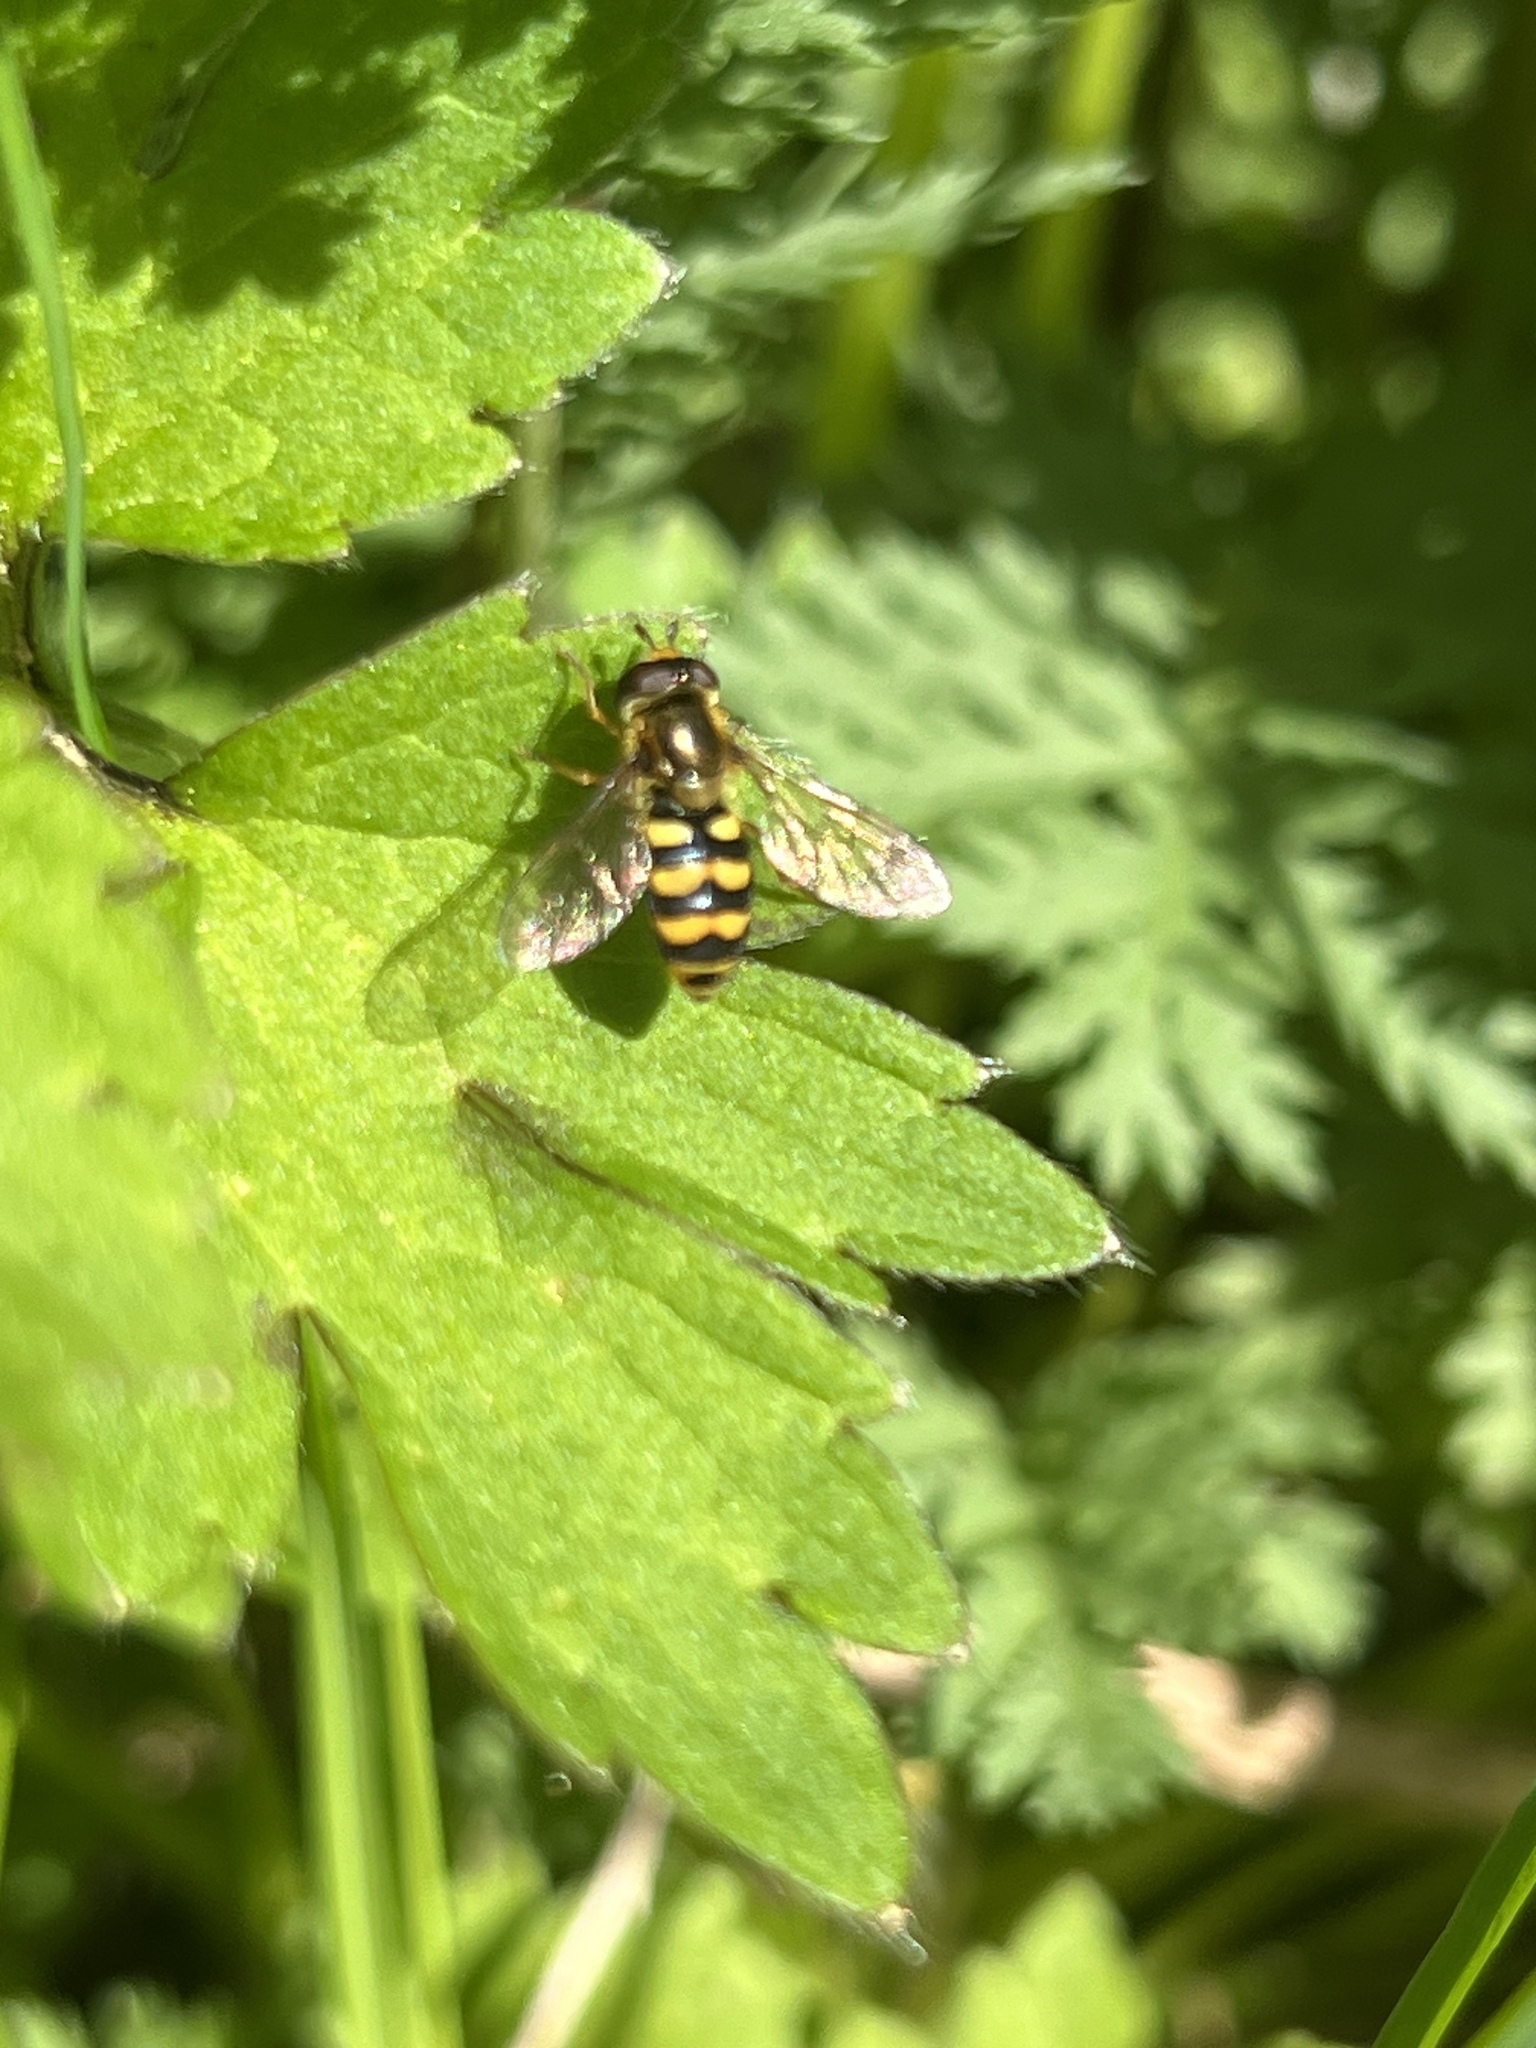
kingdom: Animalia
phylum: Arthropoda
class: Insecta
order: Diptera
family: Syrphidae
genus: Eupeodes
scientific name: Eupeodes latifasciatus
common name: Variable aphideater
